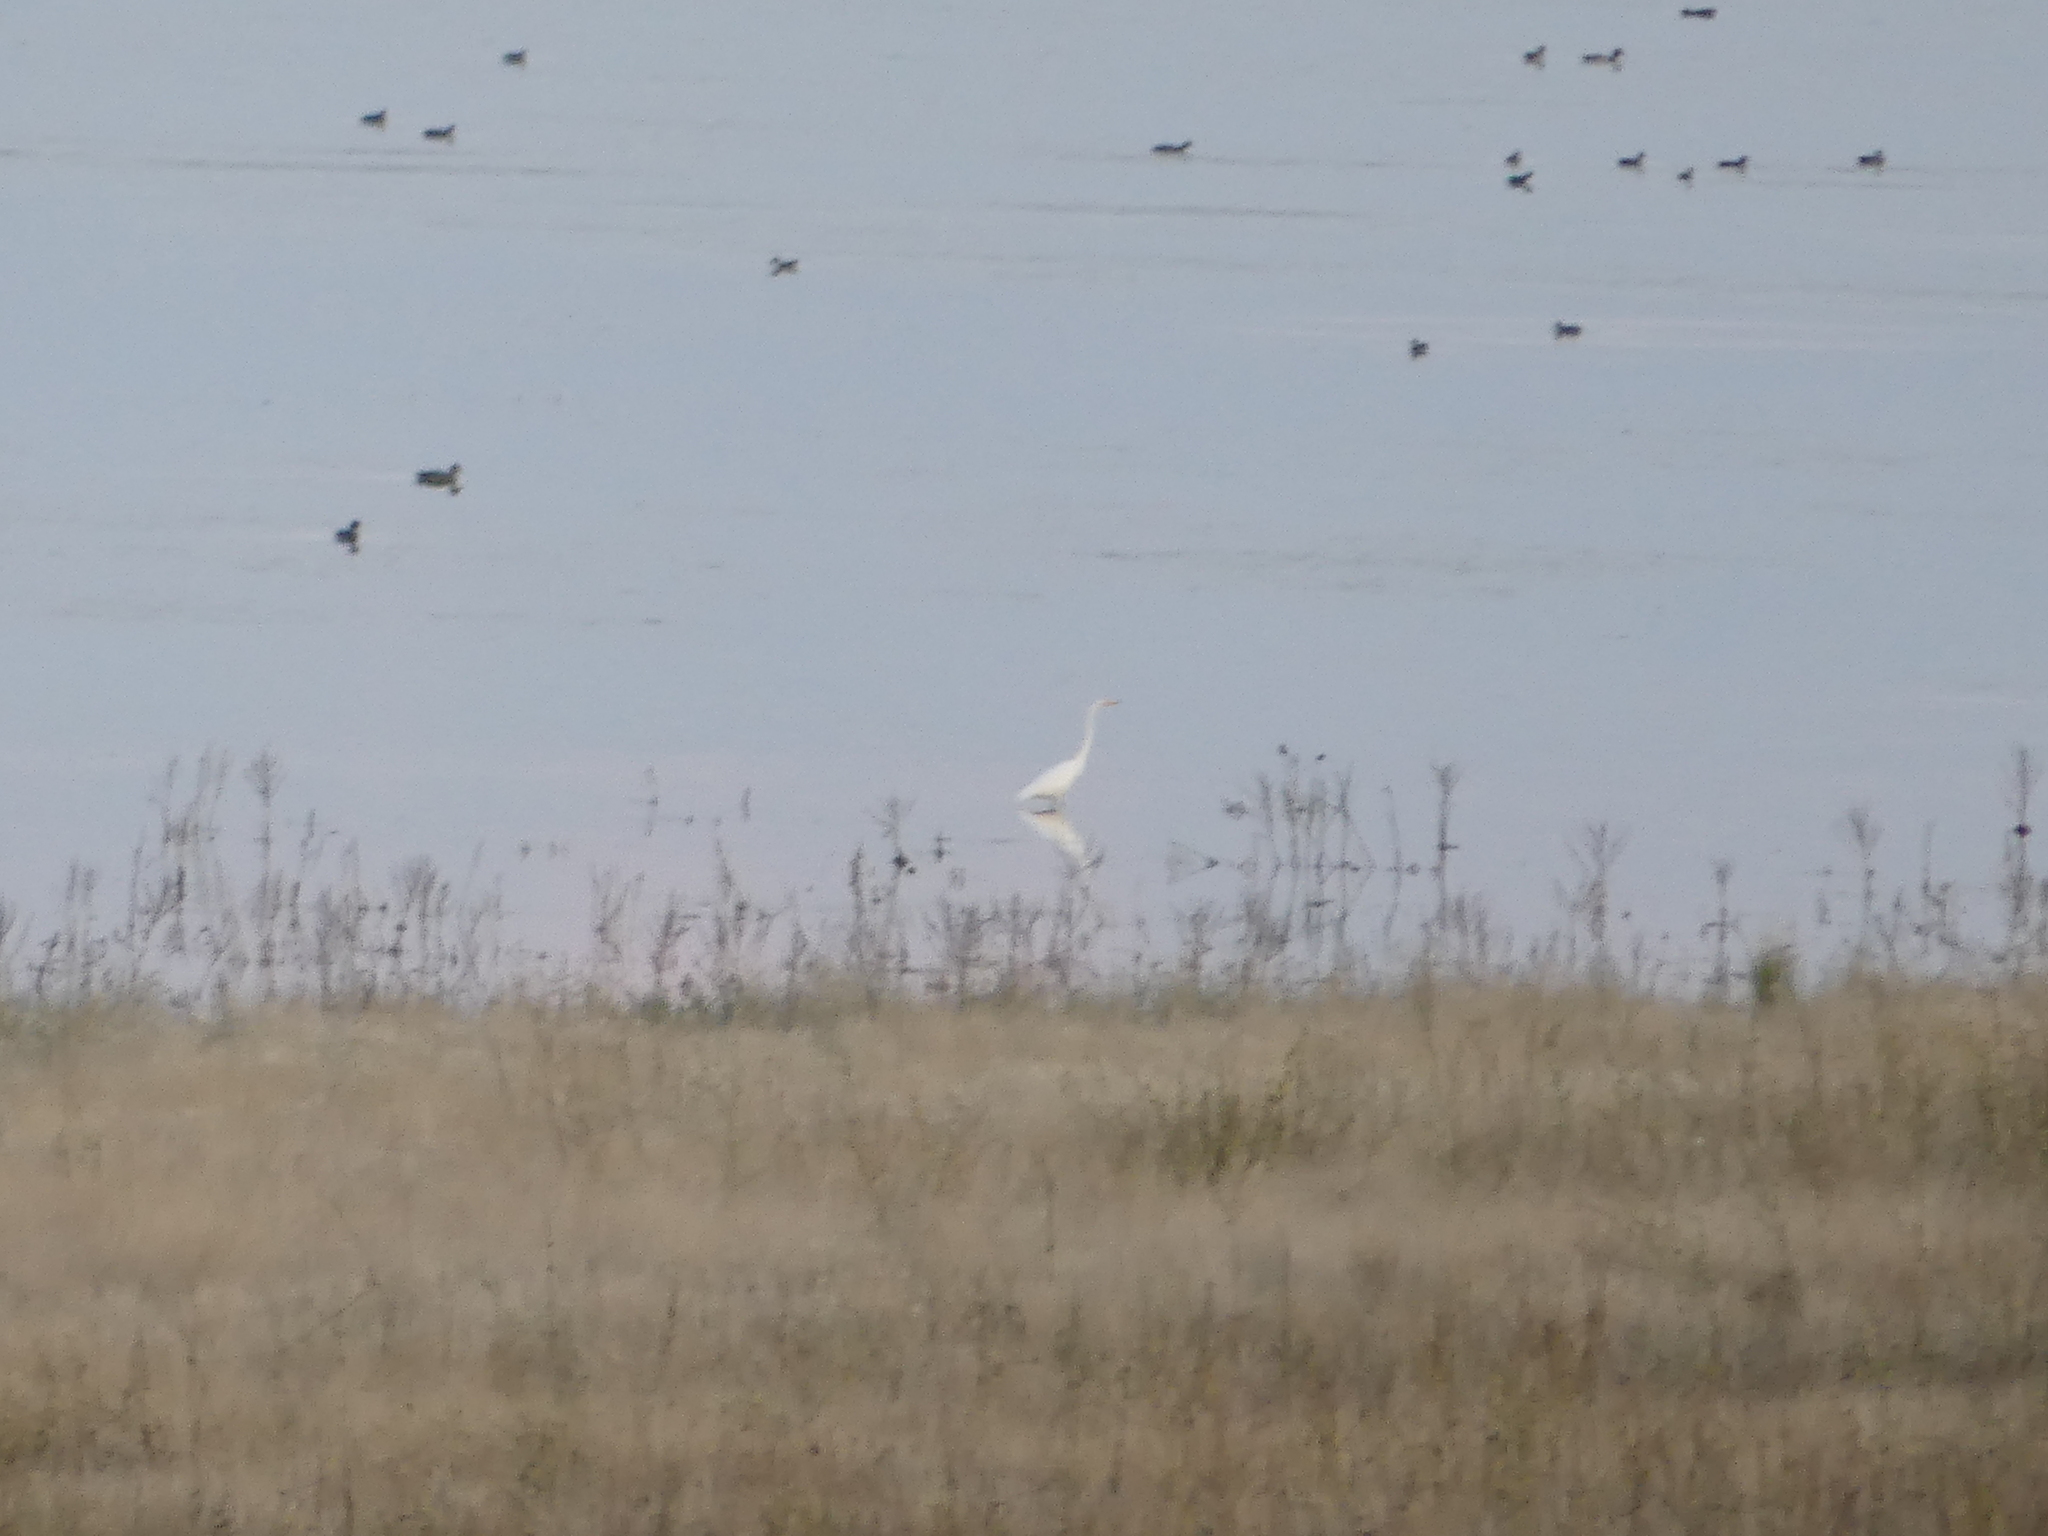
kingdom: Animalia
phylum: Chordata
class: Aves
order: Pelecaniformes
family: Ardeidae
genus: Ardea
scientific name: Ardea alba
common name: Great egret
